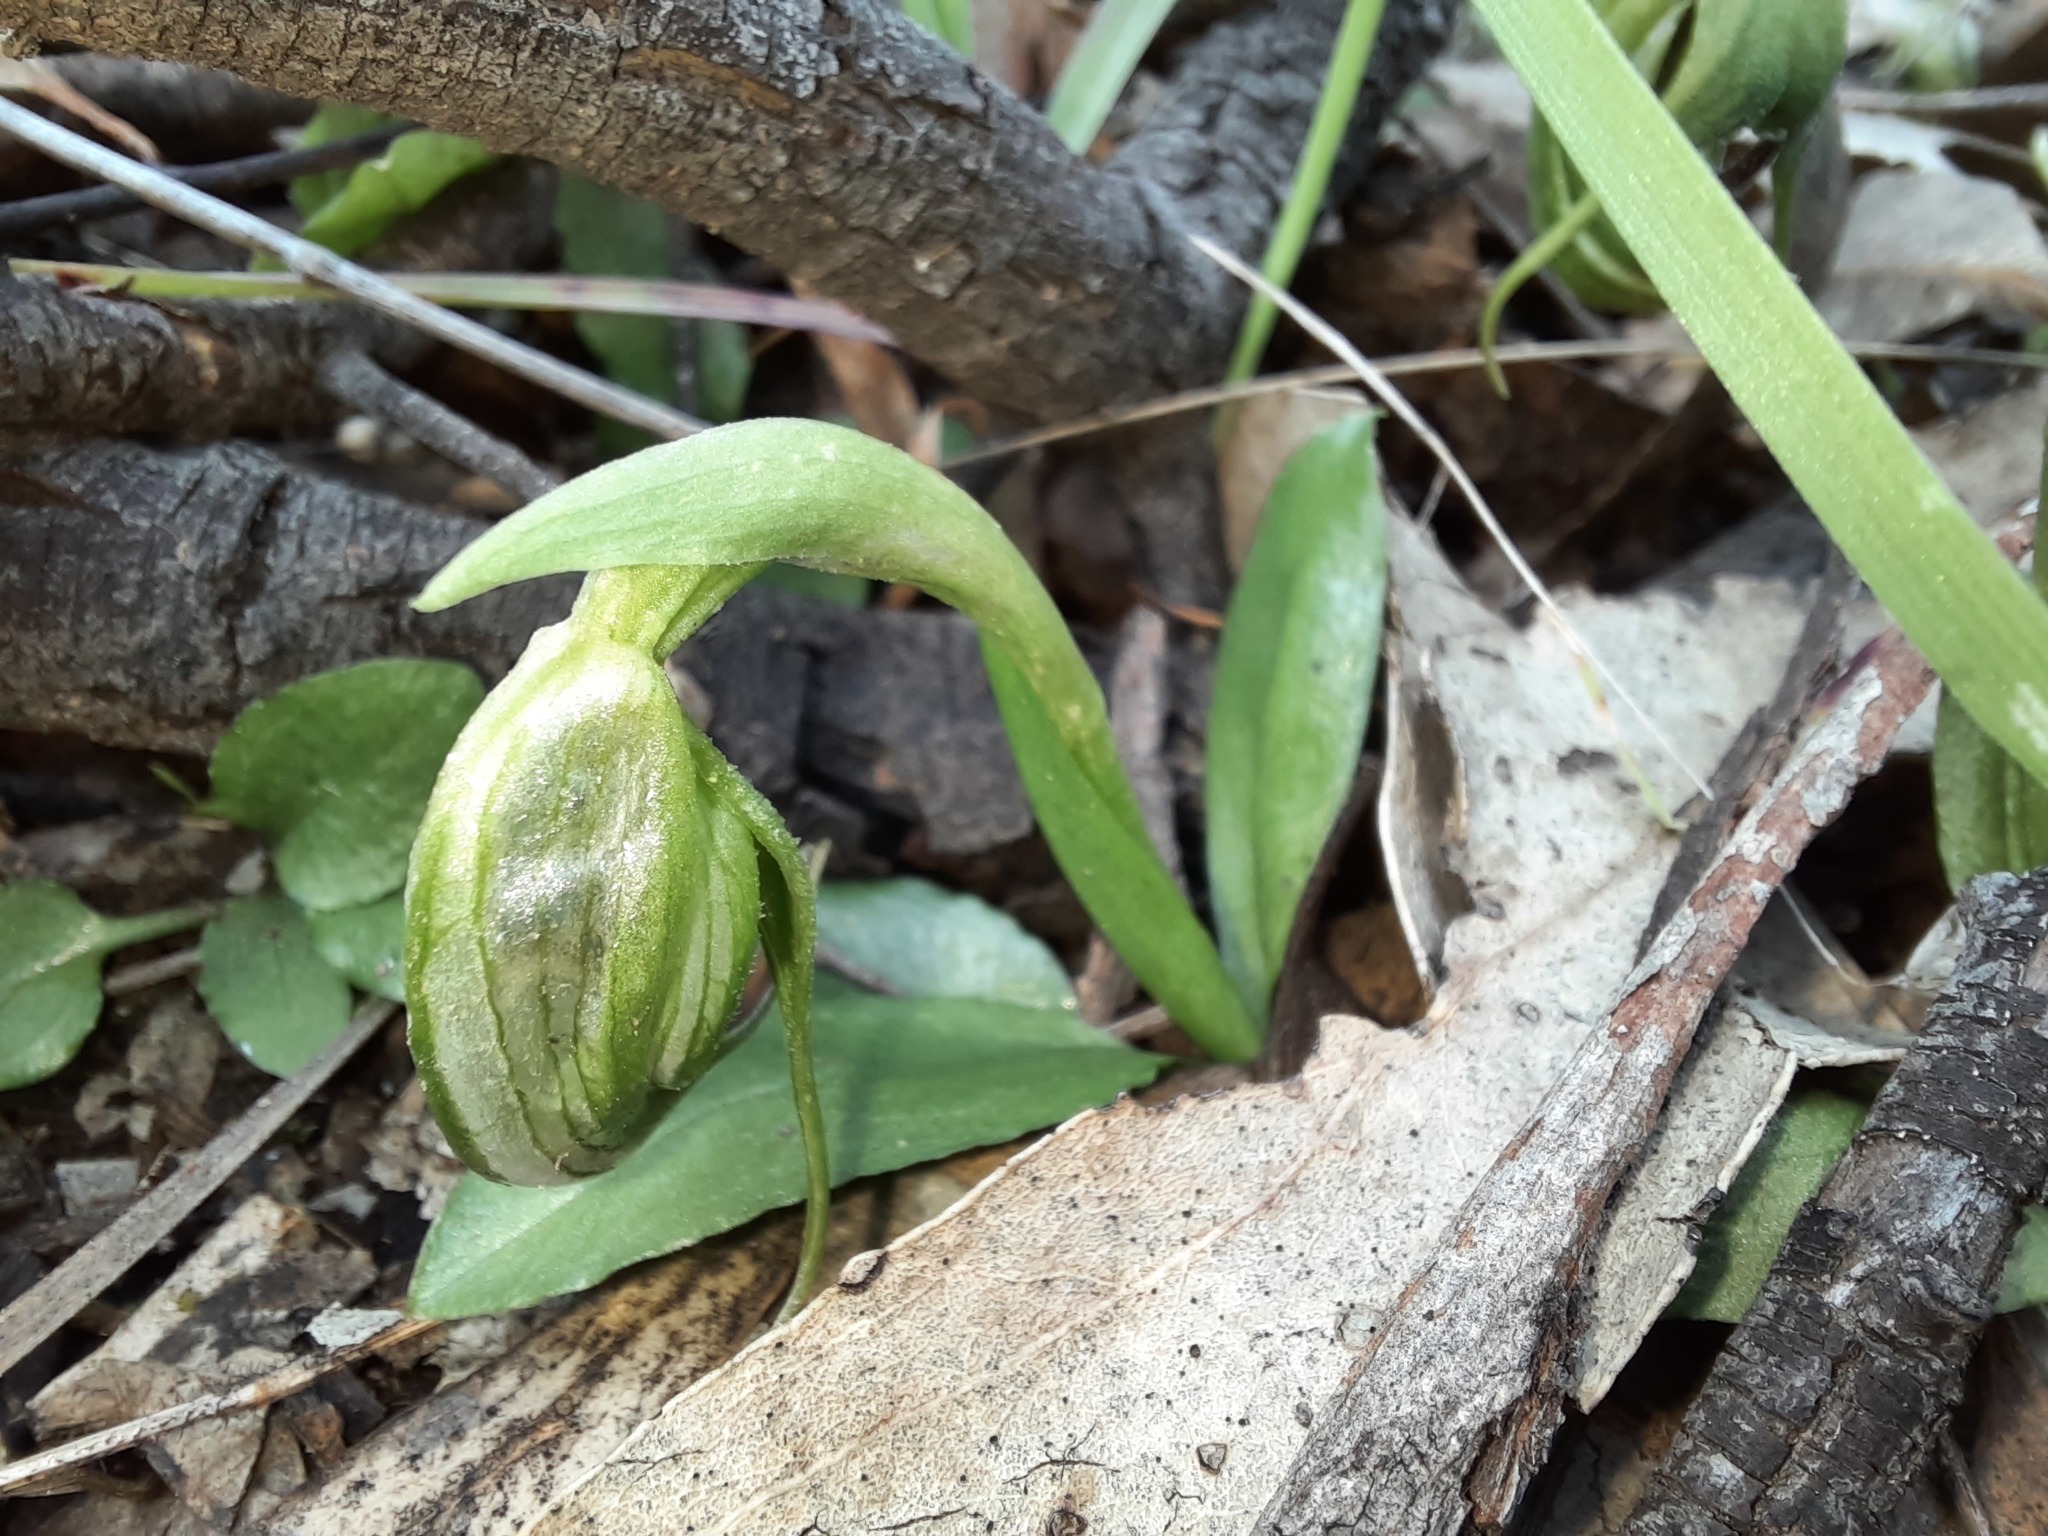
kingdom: Plantae
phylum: Tracheophyta
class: Liliopsida
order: Asparagales
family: Orchidaceae
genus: Pterostylis
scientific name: Pterostylis nutans
